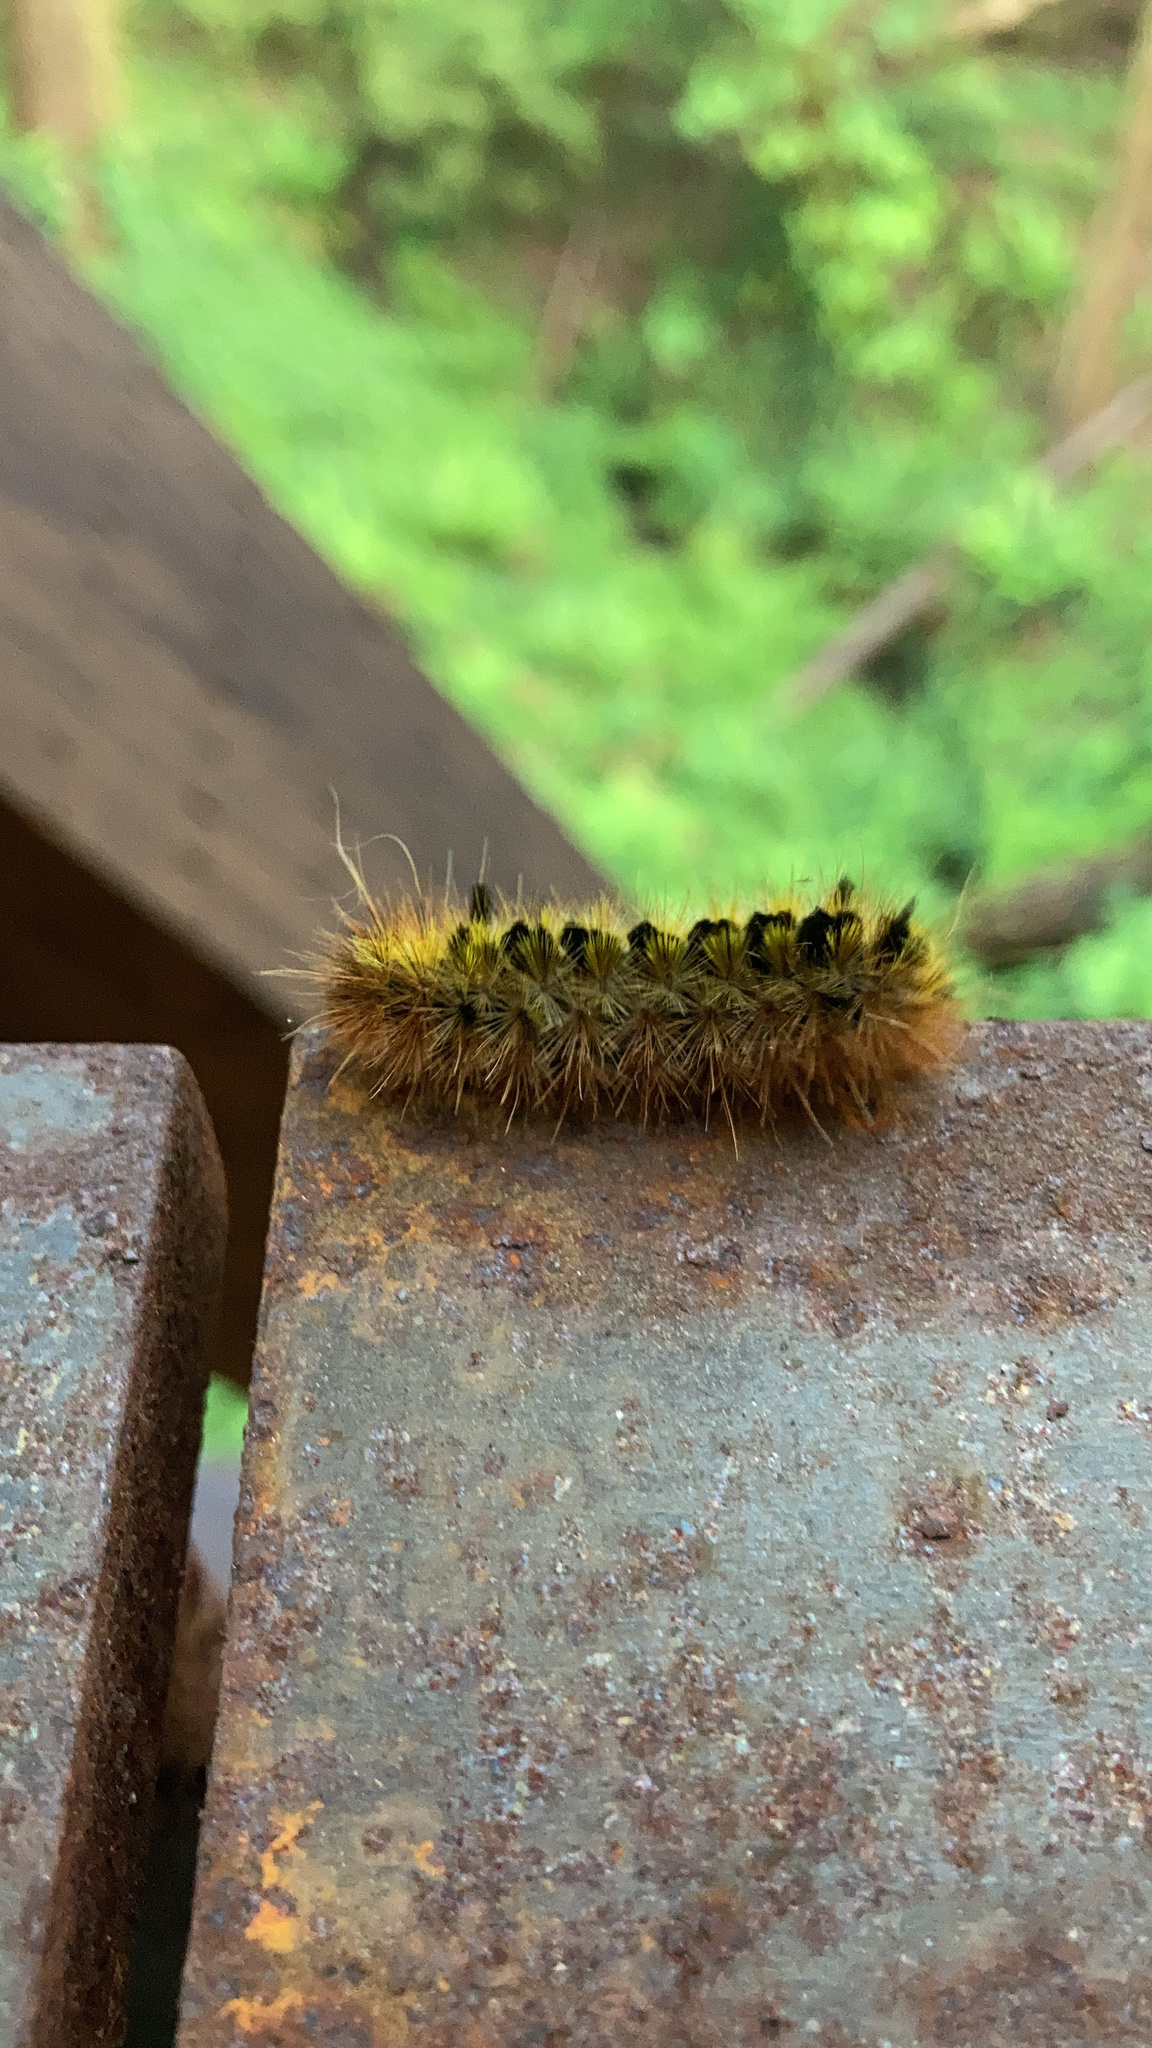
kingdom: Animalia
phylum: Arthropoda
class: Insecta
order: Lepidoptera
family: Erebidae
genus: Lophocampa
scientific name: Lophocampa argentata
